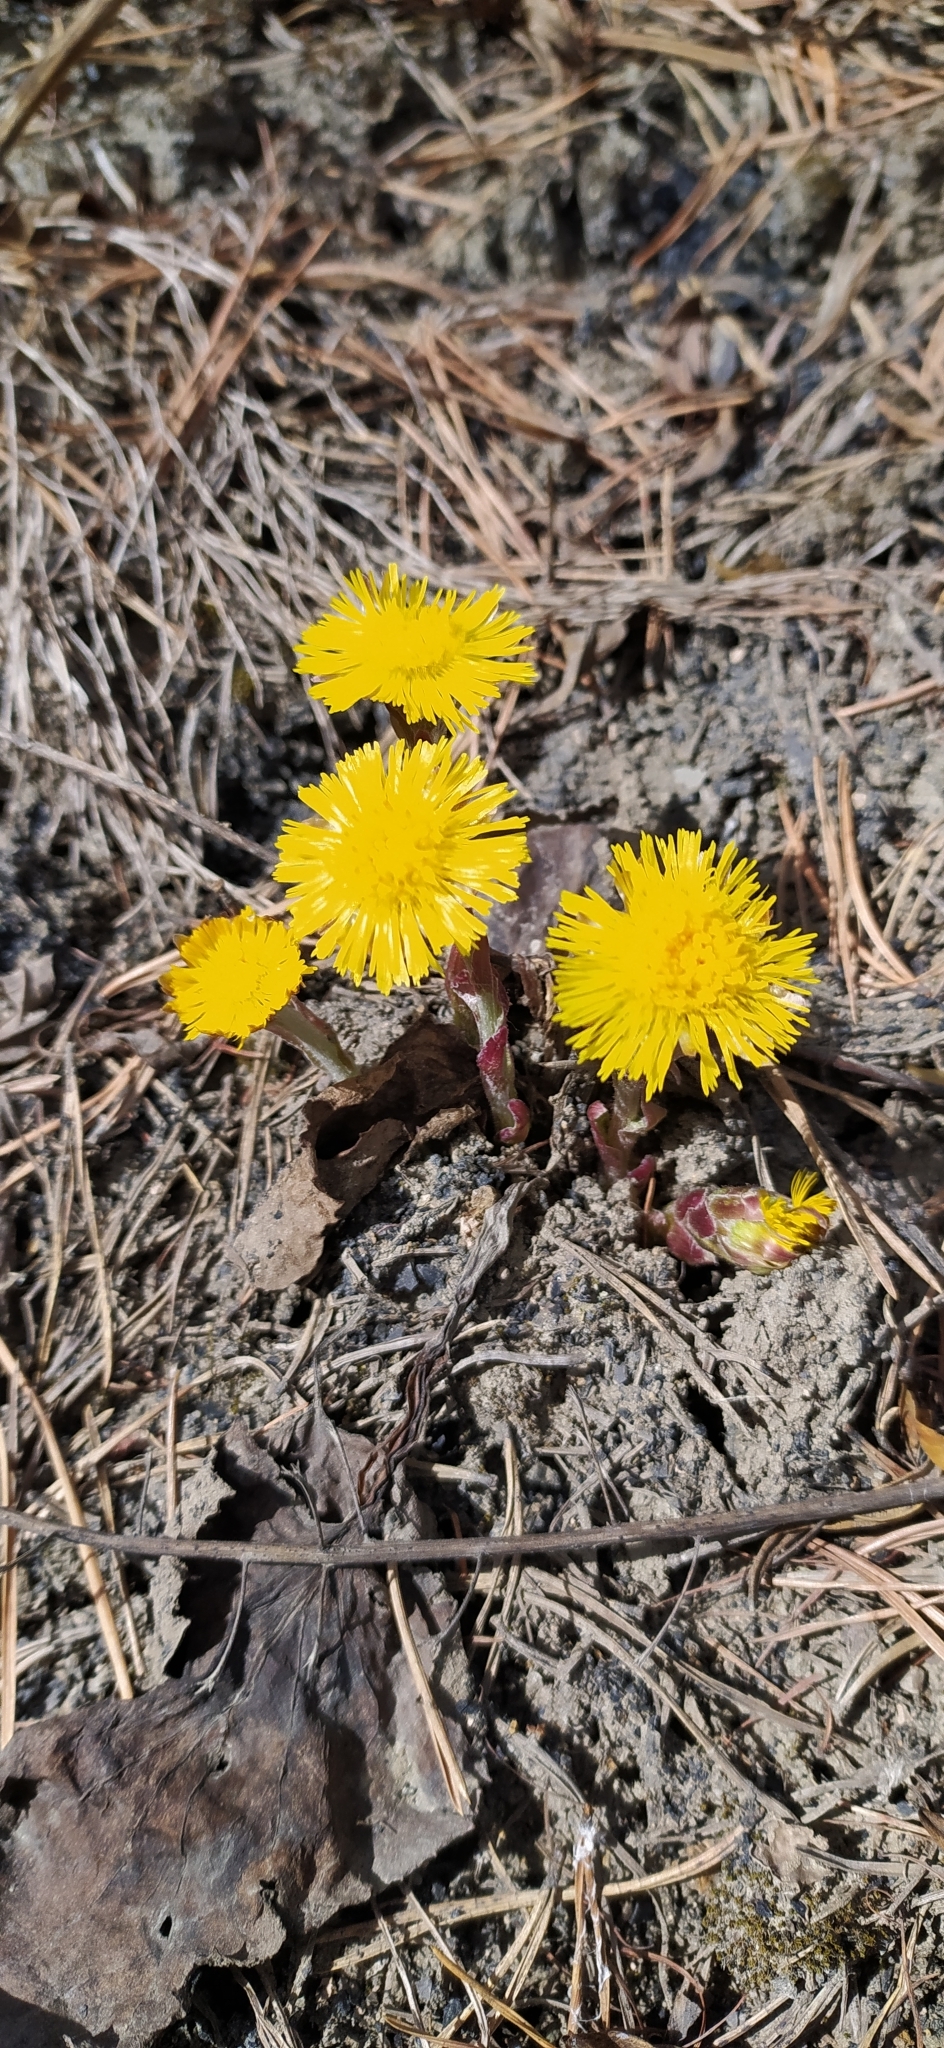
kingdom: Plantae
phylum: Tracheophyta
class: Magnoliopsida
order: Asterales
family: Asteraceae
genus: Tussilago
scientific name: Tussilago farfara
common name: Coltsfoot
